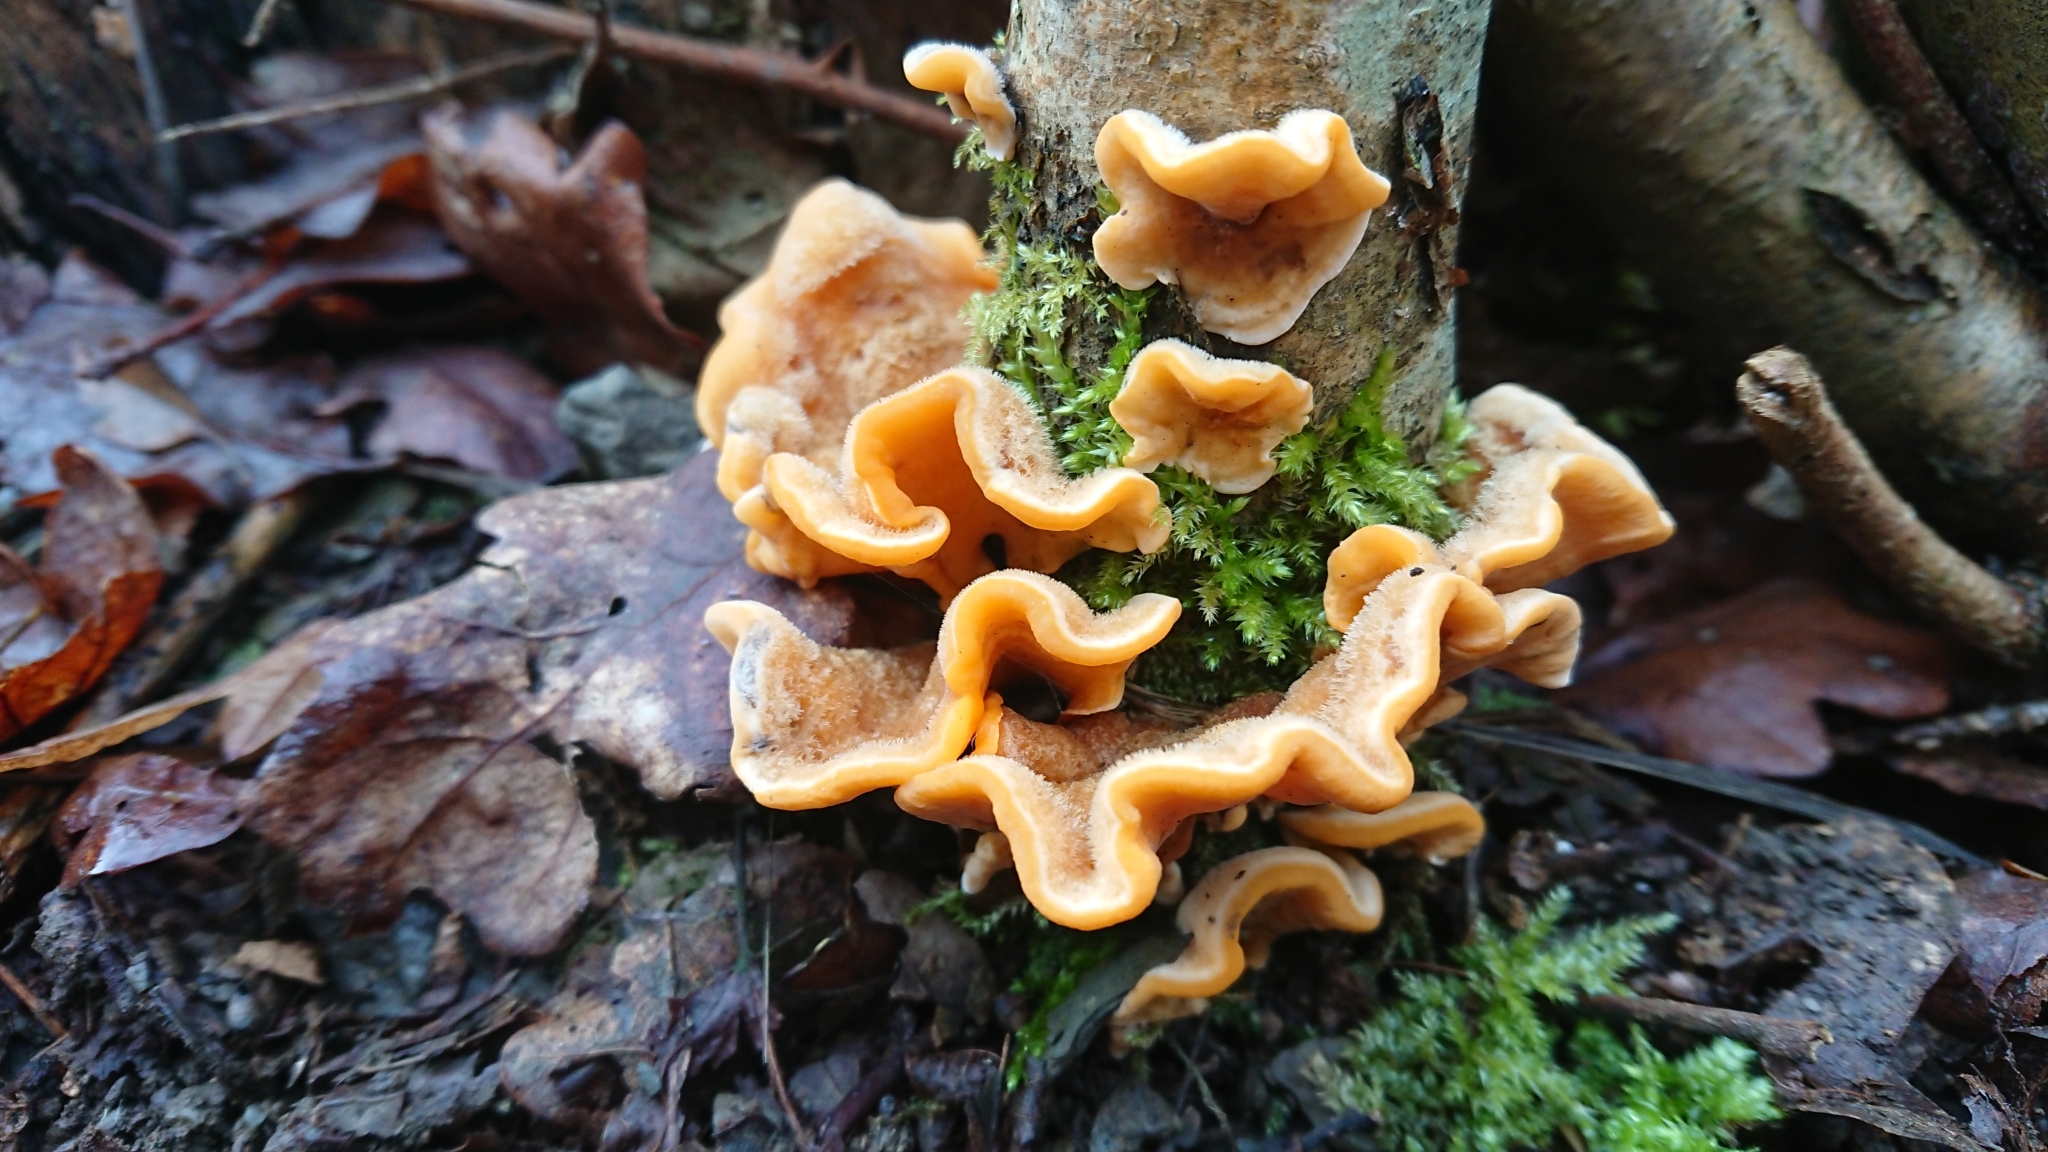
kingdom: Fungi
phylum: Basidiomycota
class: Agaricomycetes
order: Russulales
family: Stereaceae
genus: Stereum
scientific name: Stereum hirsutum
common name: Hairy curtain crust
